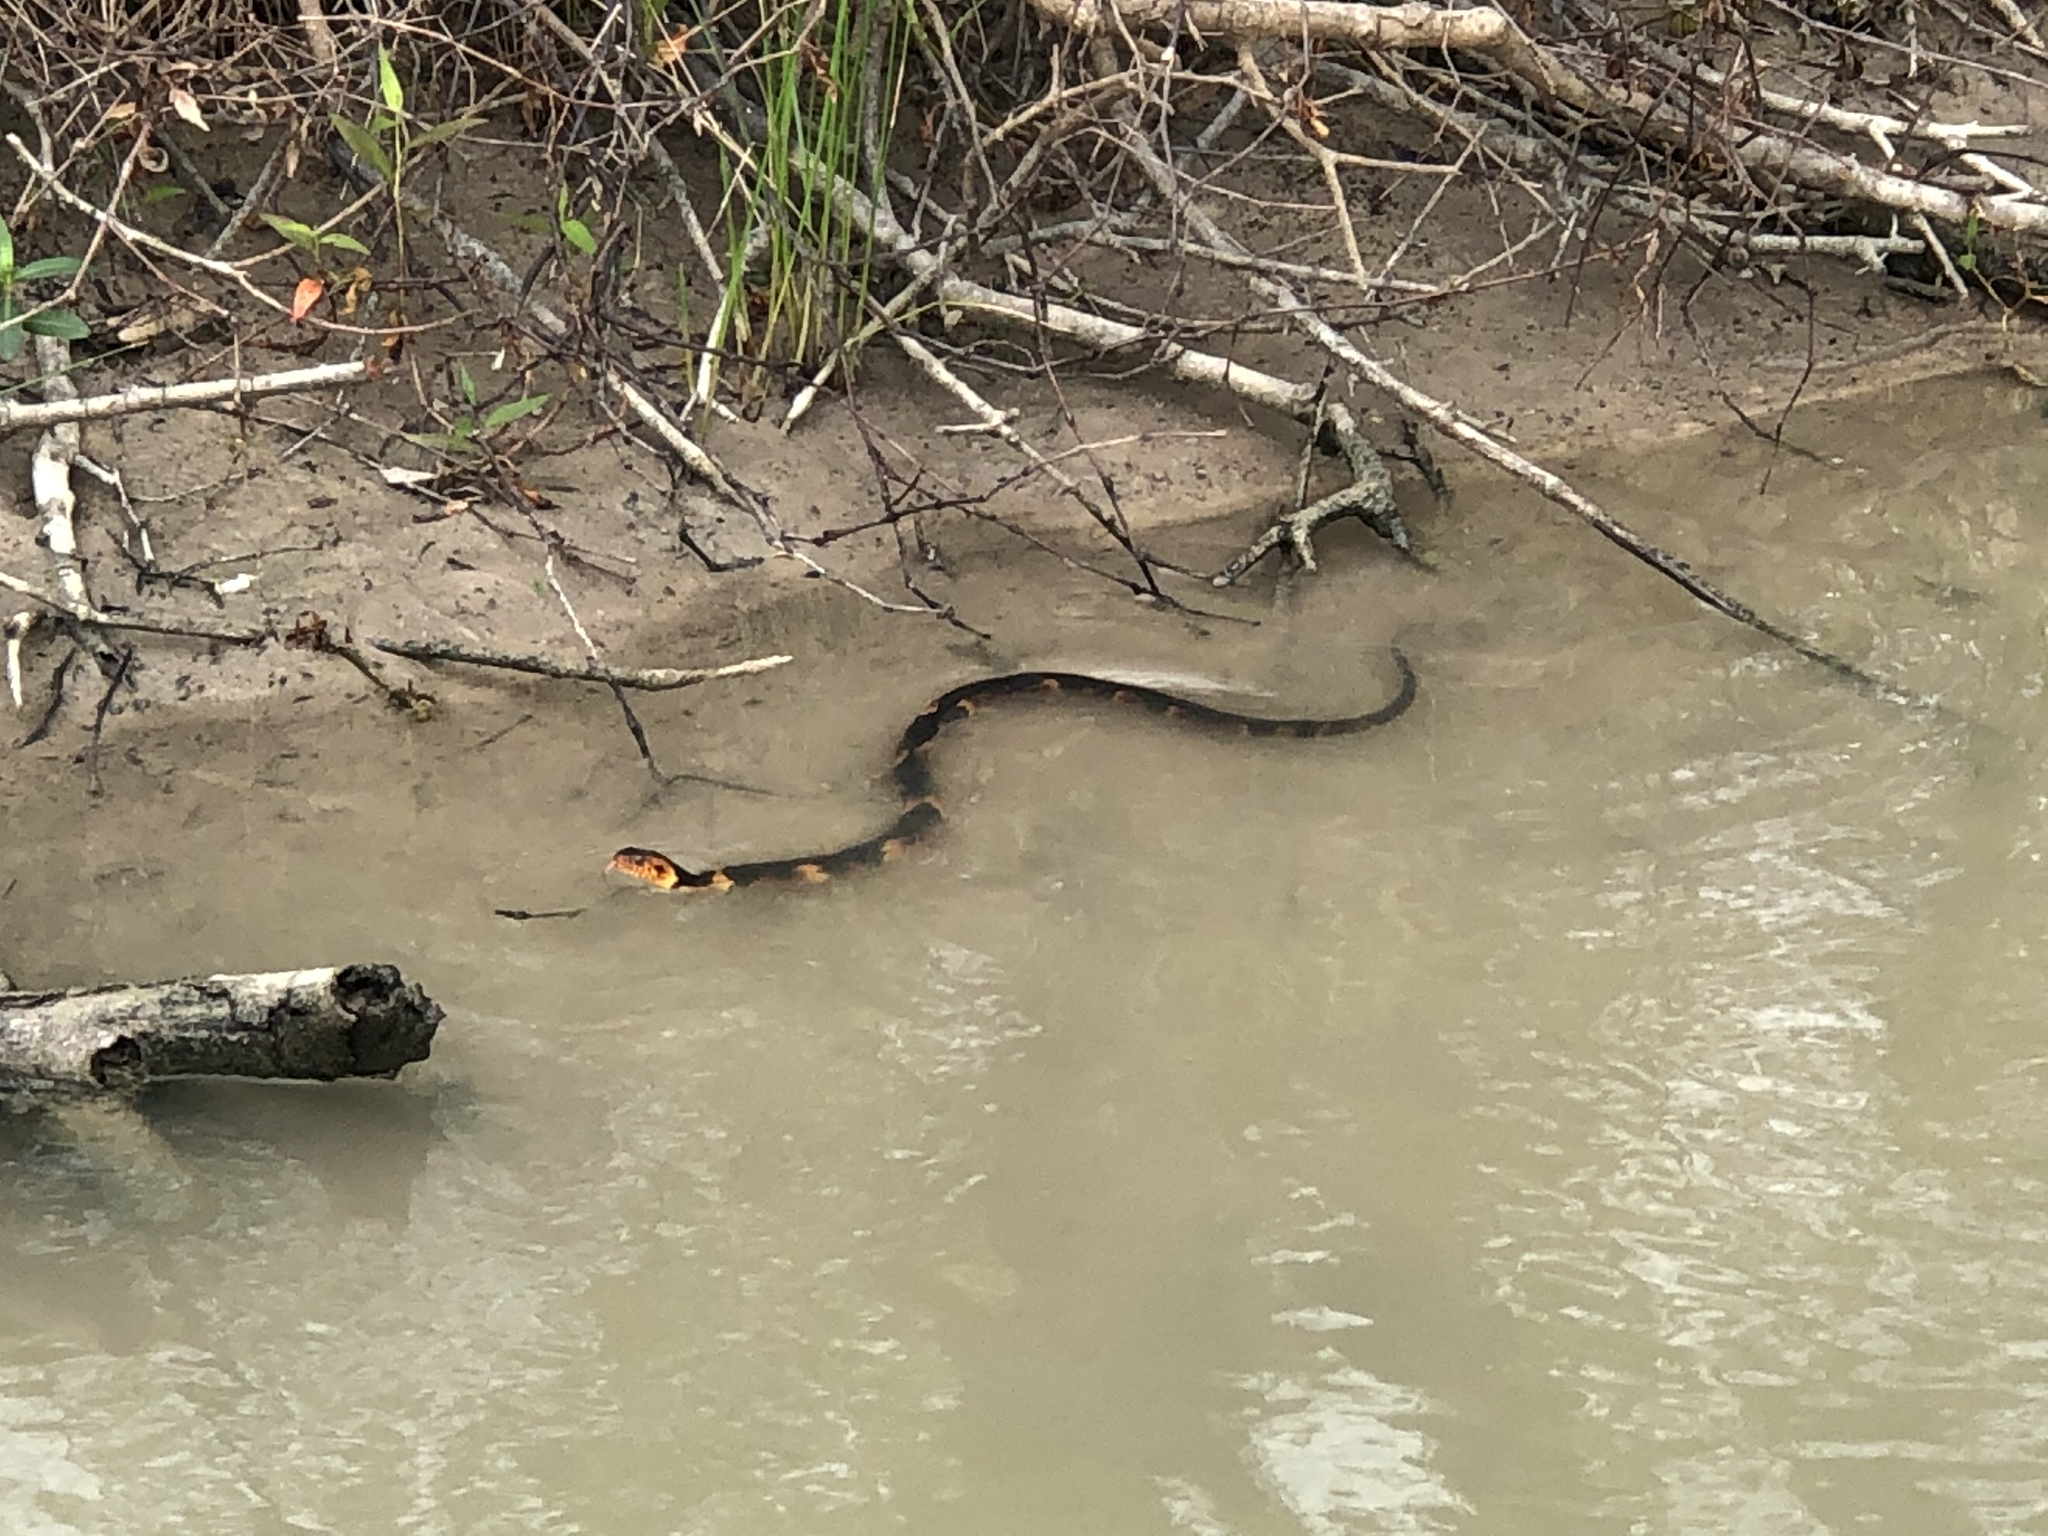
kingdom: Animalia
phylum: Chordata
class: Squamata
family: Colubridae
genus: Nerodia
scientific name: Nerodia fasciata
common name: Southern water snake
